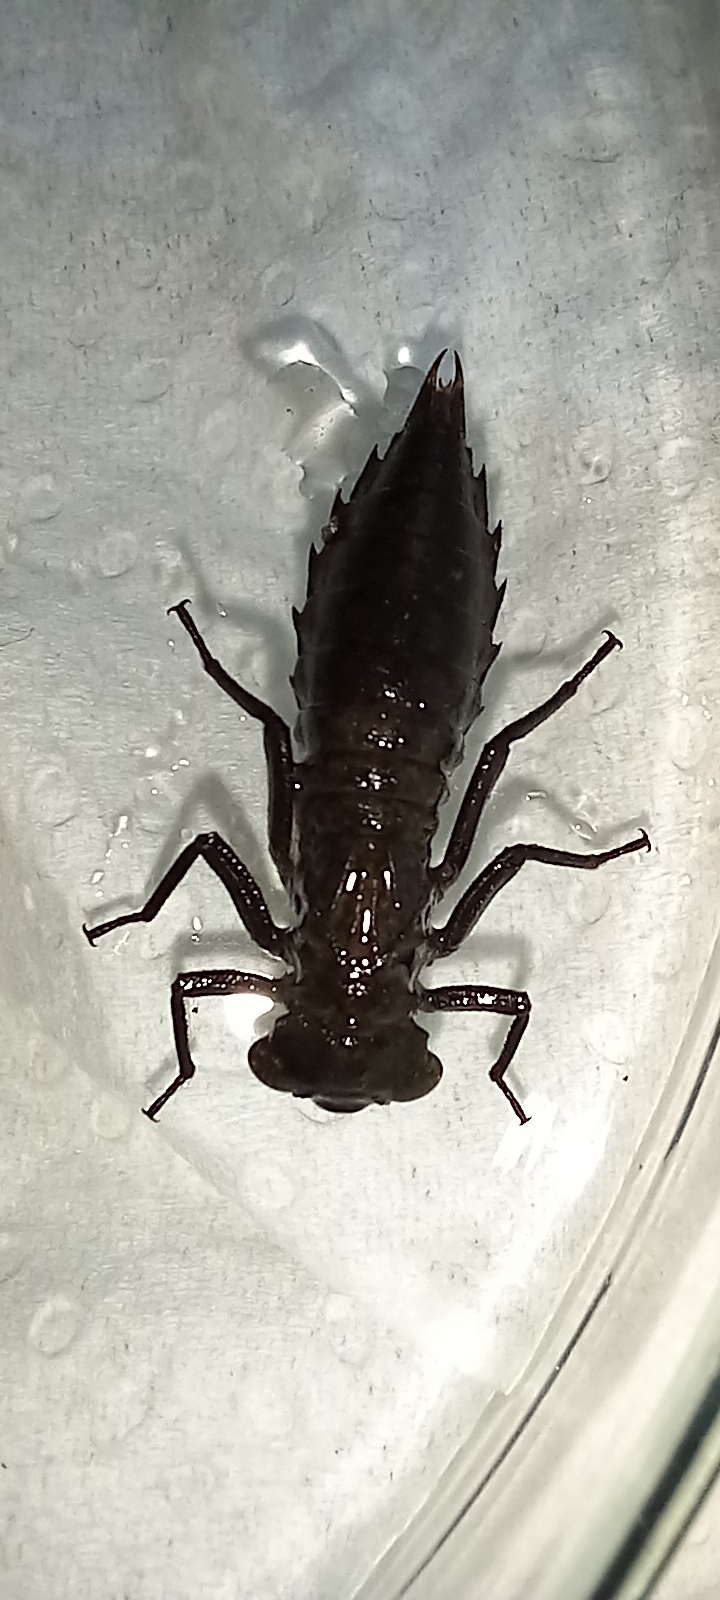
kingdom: Animalia
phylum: Arthropoda
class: Insecta
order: Odonata
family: Aeshnidae
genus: Boyeria
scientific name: Boyeria irene
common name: Western spectre
